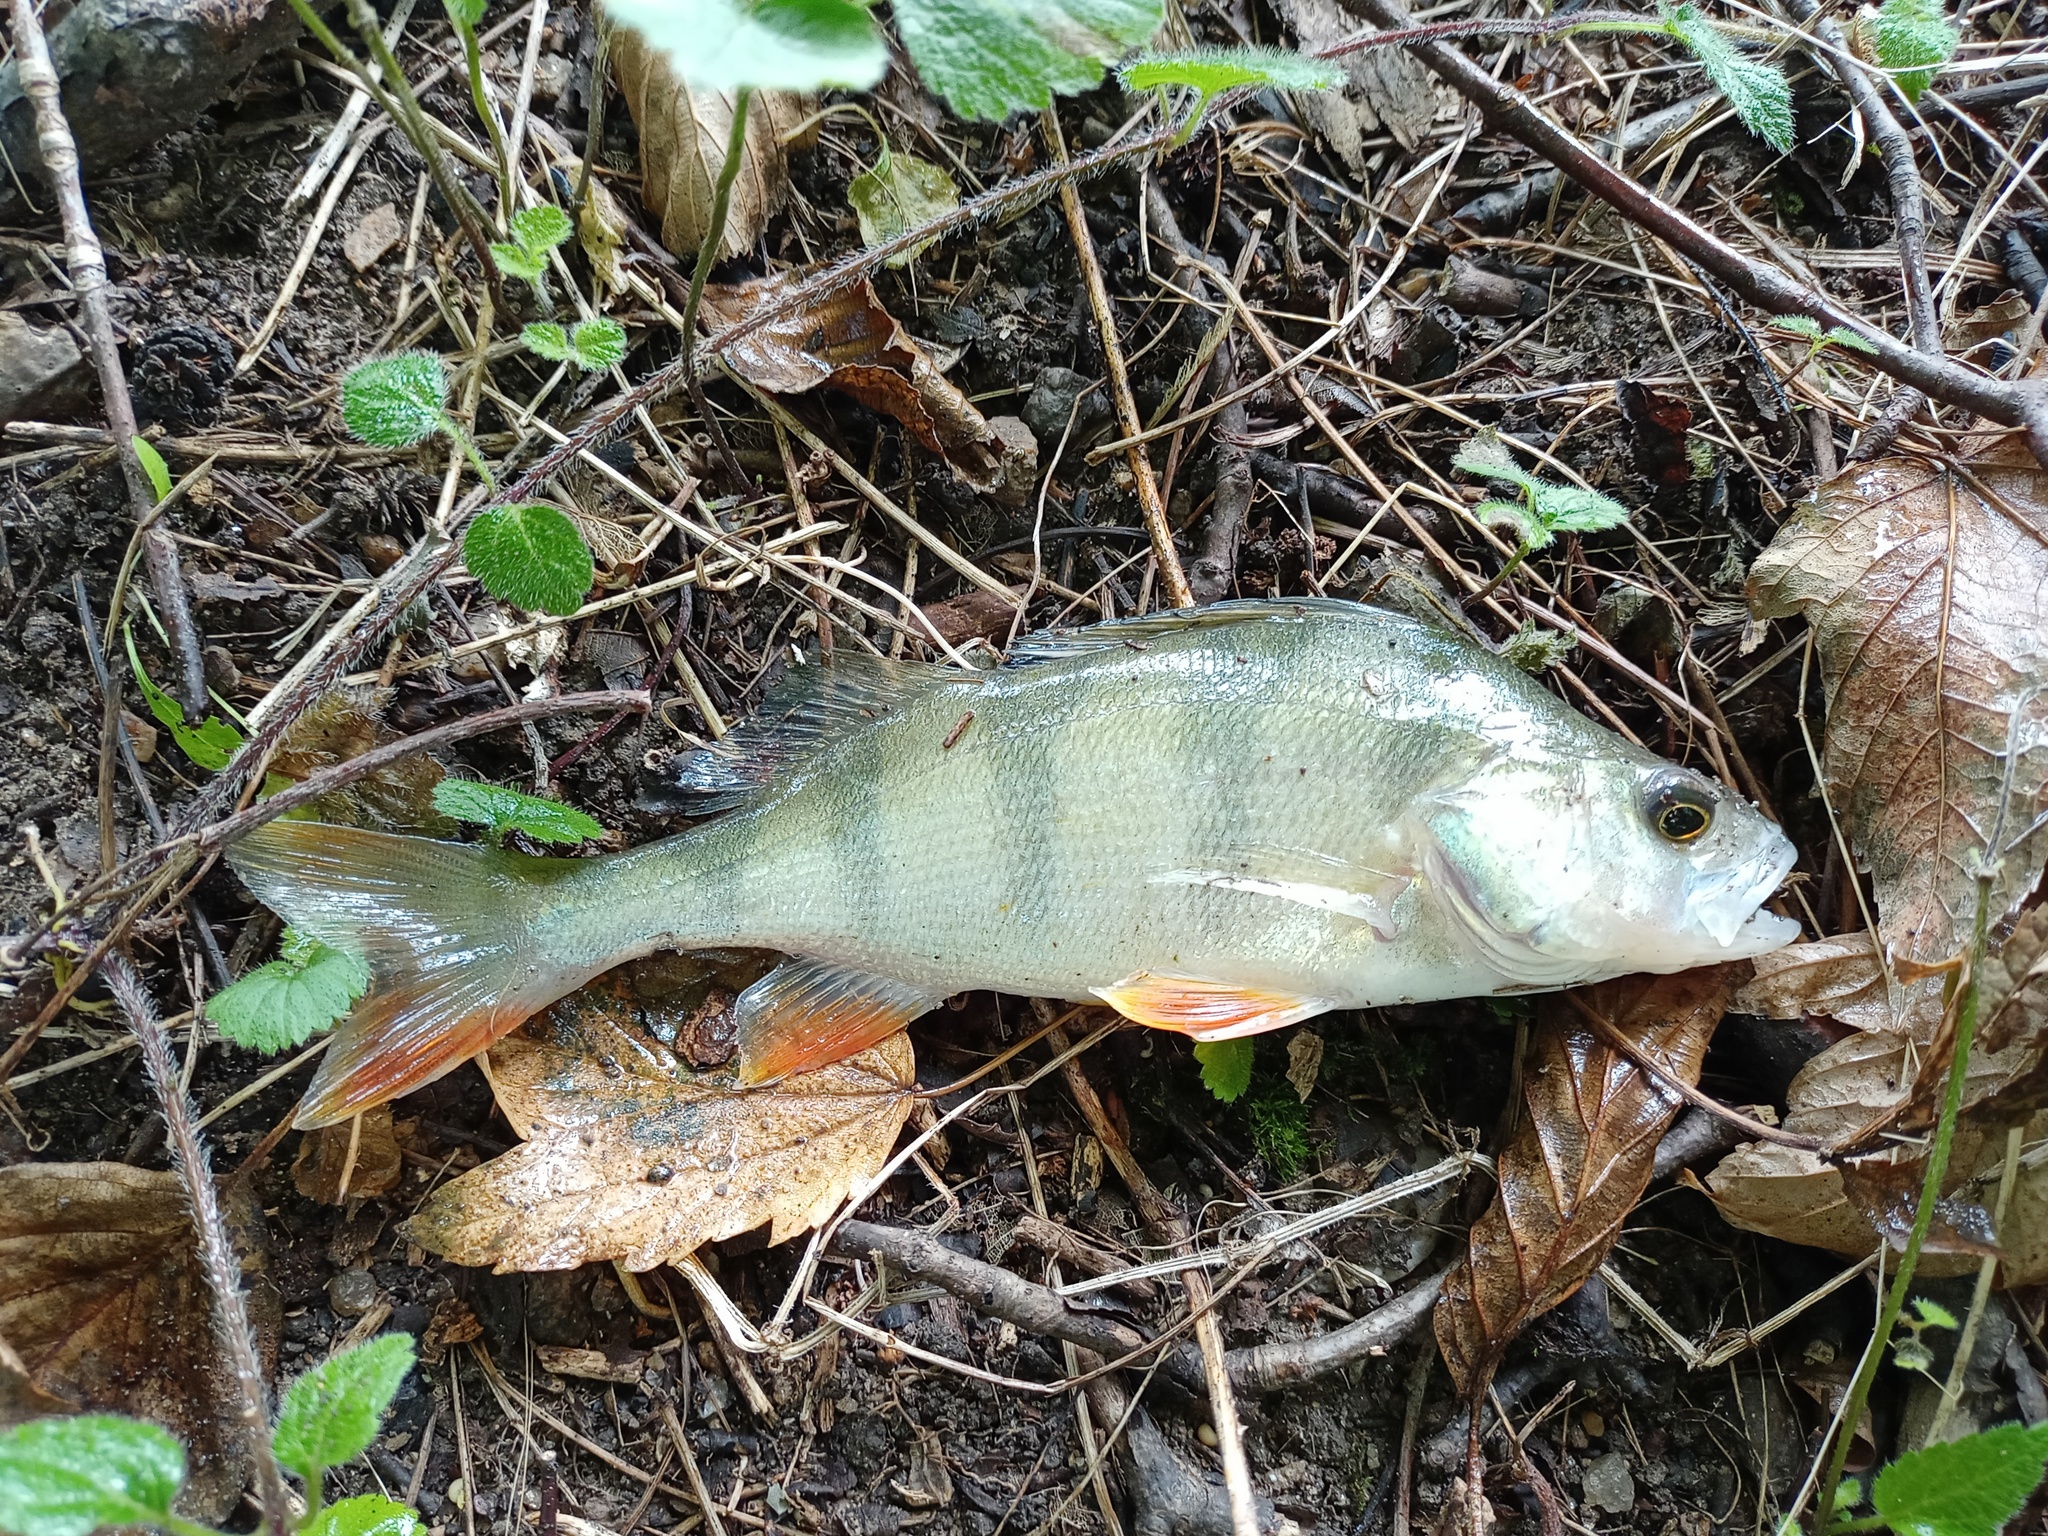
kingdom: Animalia
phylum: Chordata
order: Perciformes
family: Percidae
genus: Perca
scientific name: Perca fluviatilis
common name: Perch
